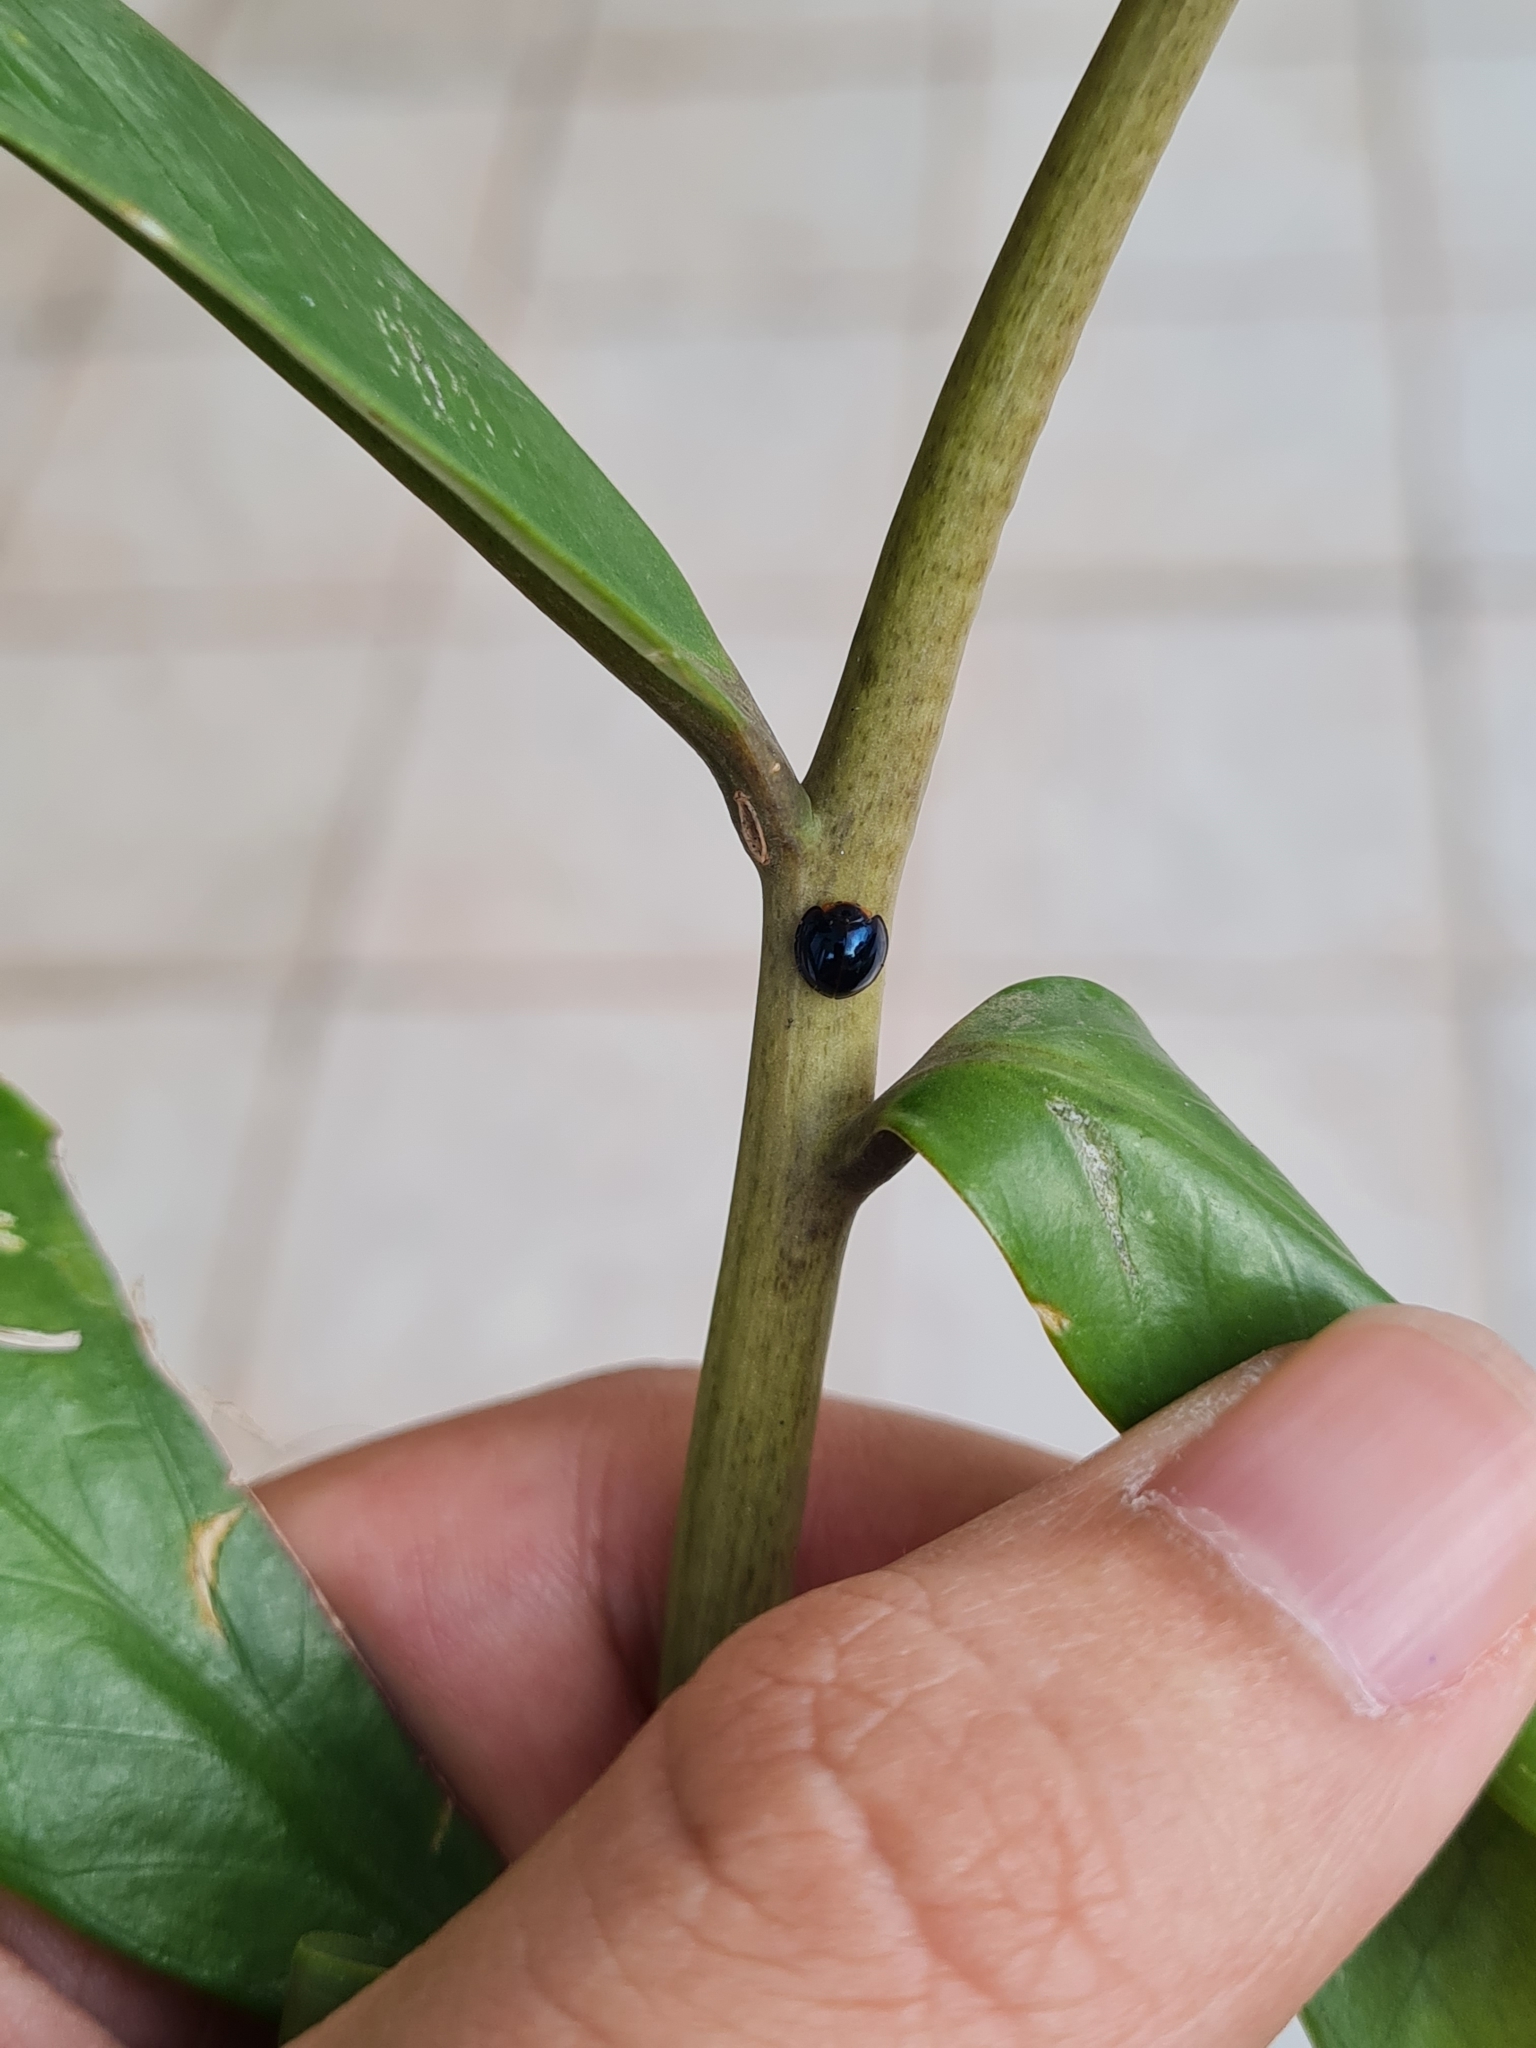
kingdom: Animalia
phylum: Arthropoda
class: Insecta
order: Coleoptera
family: Coccinellidae
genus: Halmus
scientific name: Halmus chalybeus
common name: Steel blue ladybird beetle
